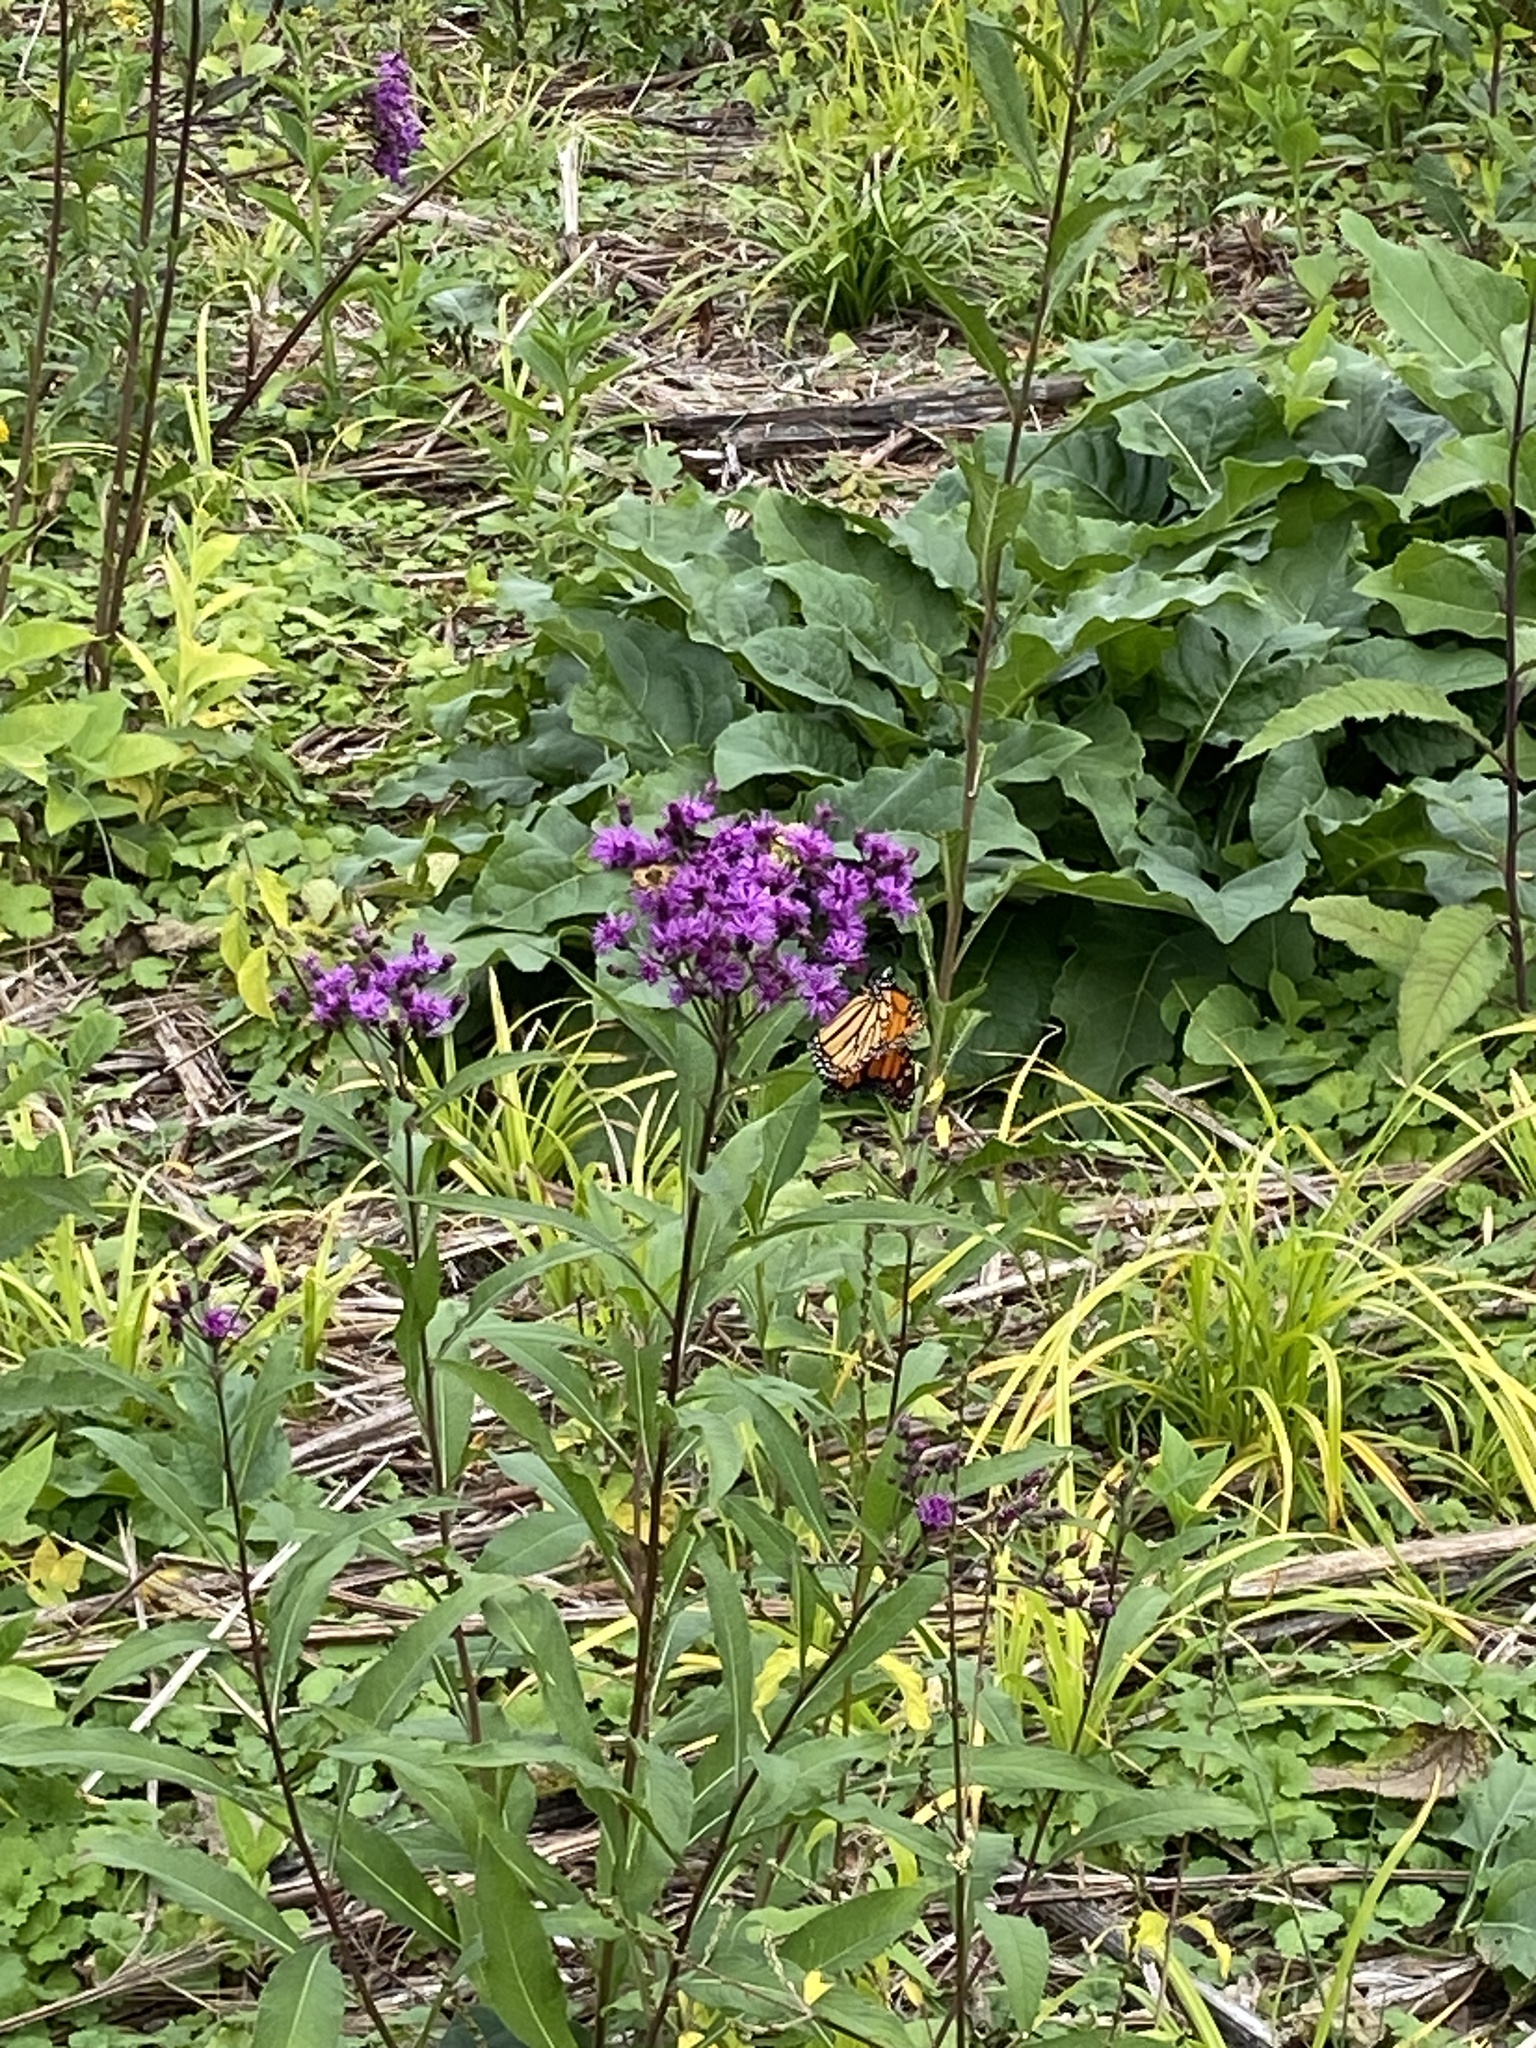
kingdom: Animalia
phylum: Arthropoda
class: Insecta
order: Lepidoptera
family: Nymphalidae
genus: Danaus
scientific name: Danaus plexippus
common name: Monarch
